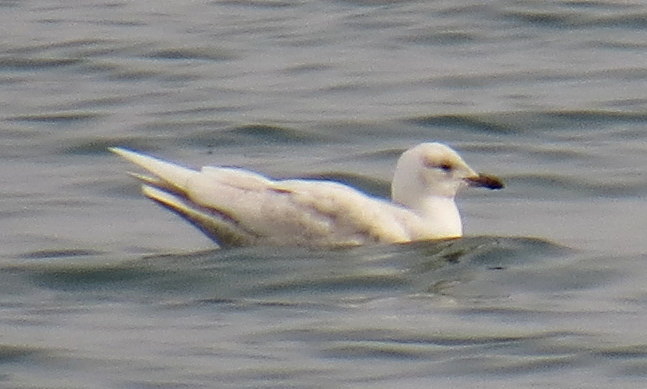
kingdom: Animalia
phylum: Chordata
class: Aves
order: Charadriiformes
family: Laridae
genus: Larus
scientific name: Larus glaucoides
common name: Iceland gull
